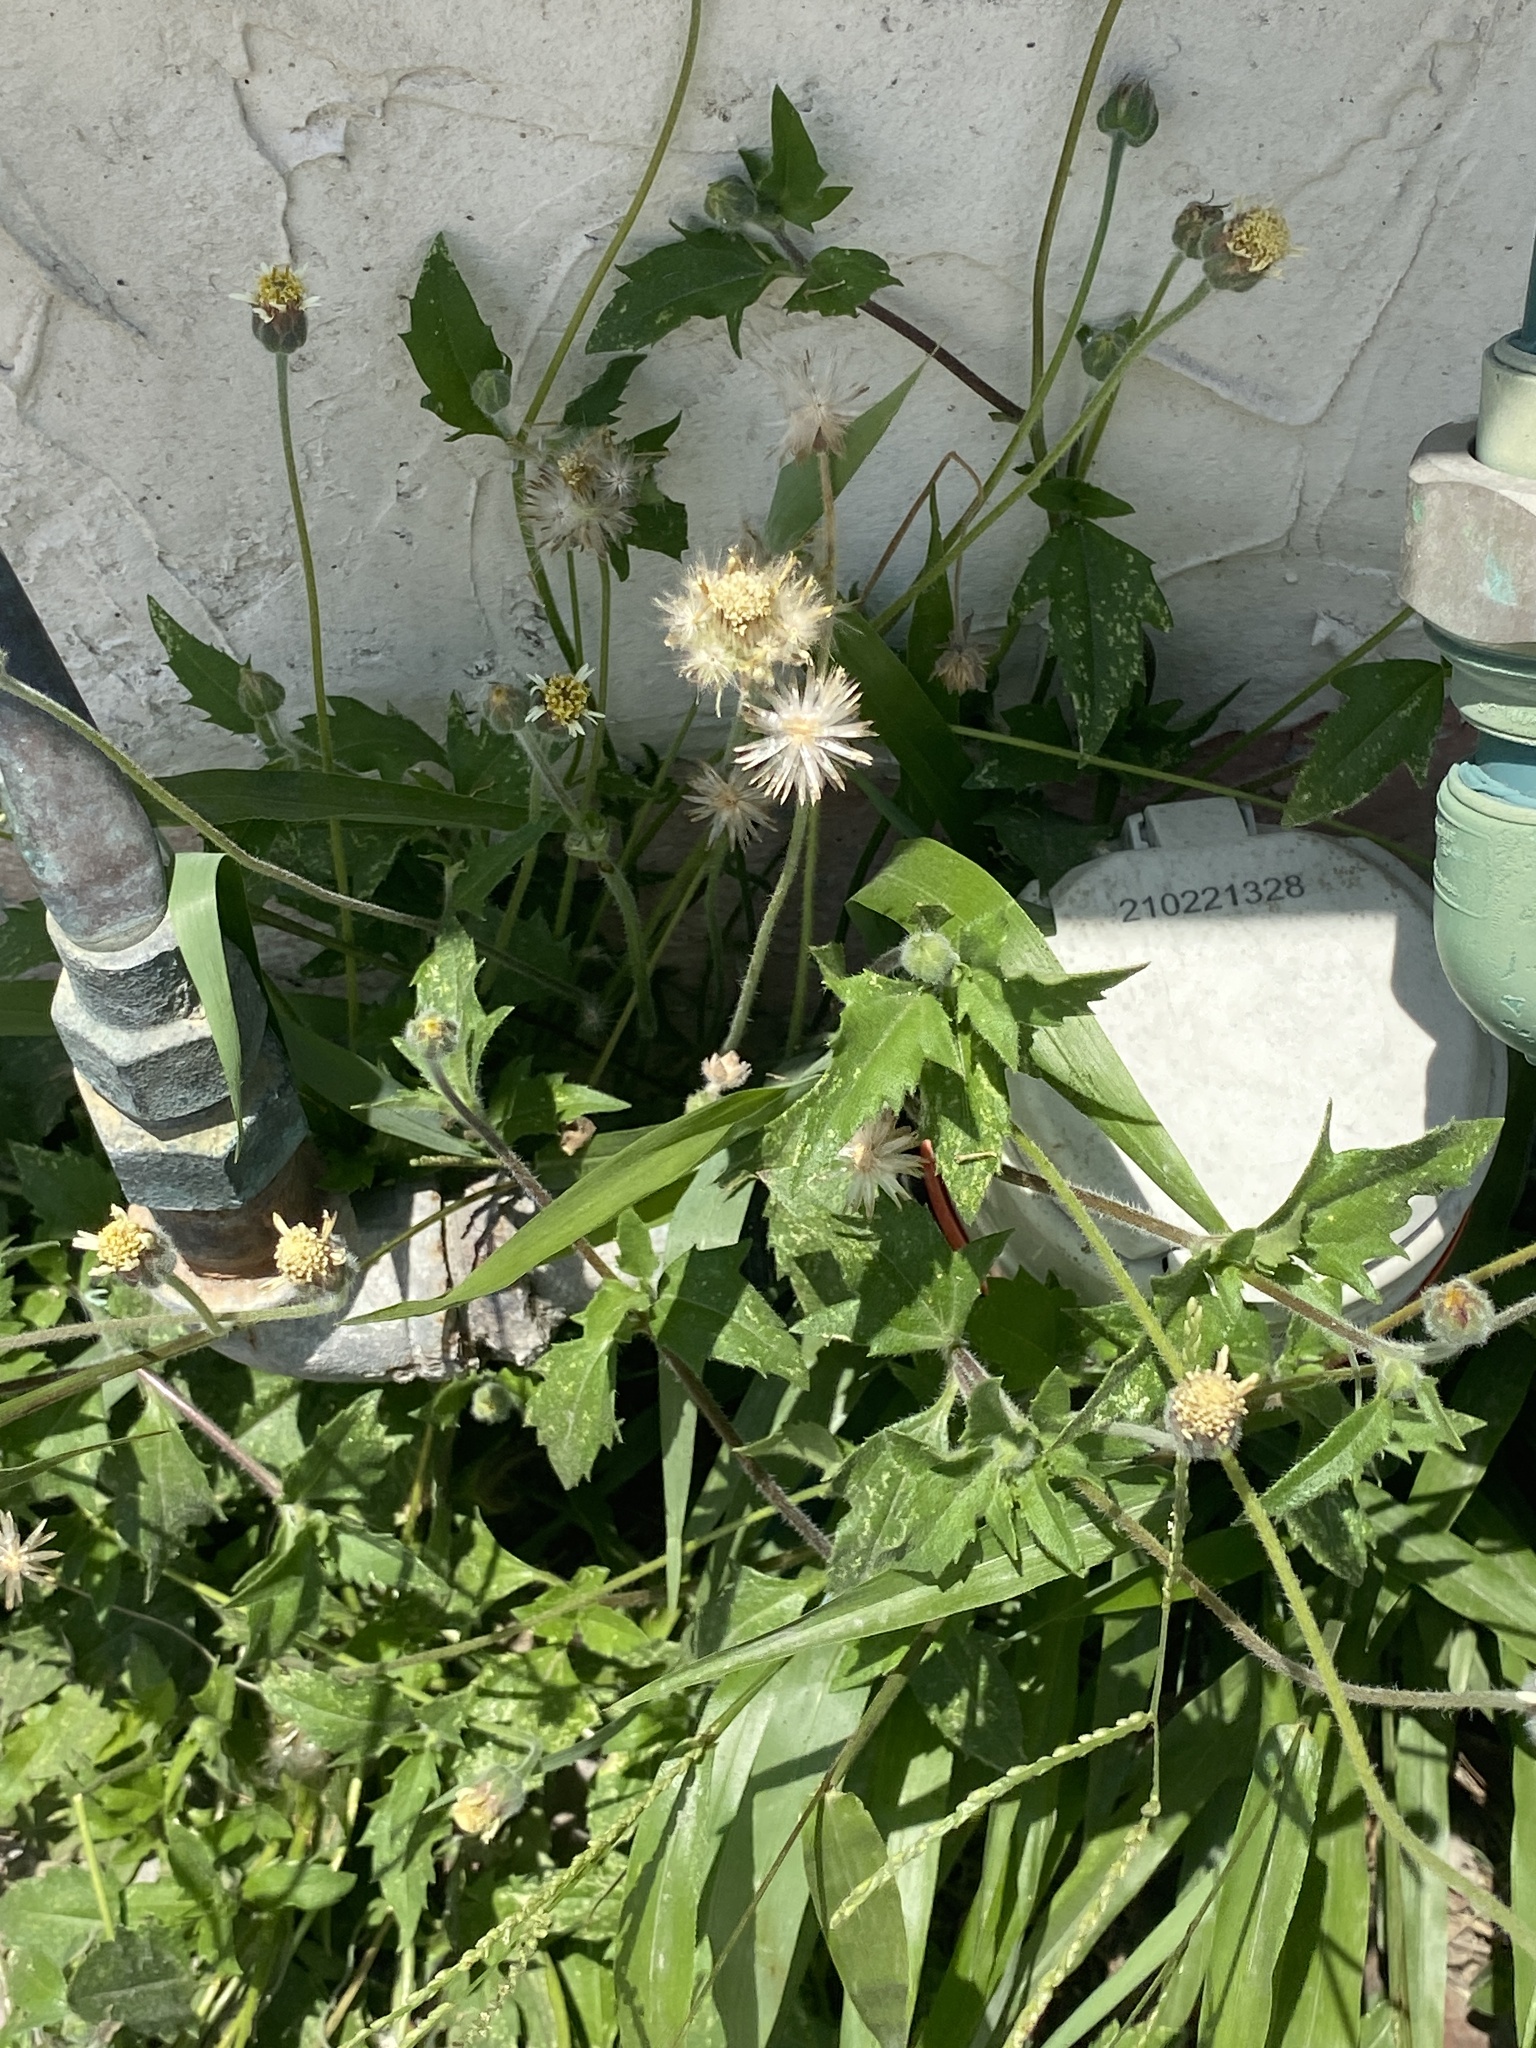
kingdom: Plantae
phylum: Tracheophyta
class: Magnoliopsida
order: Asterales
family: Asteraceae
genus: Tridax
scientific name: Tridax procumbens
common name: Coatbuttons
